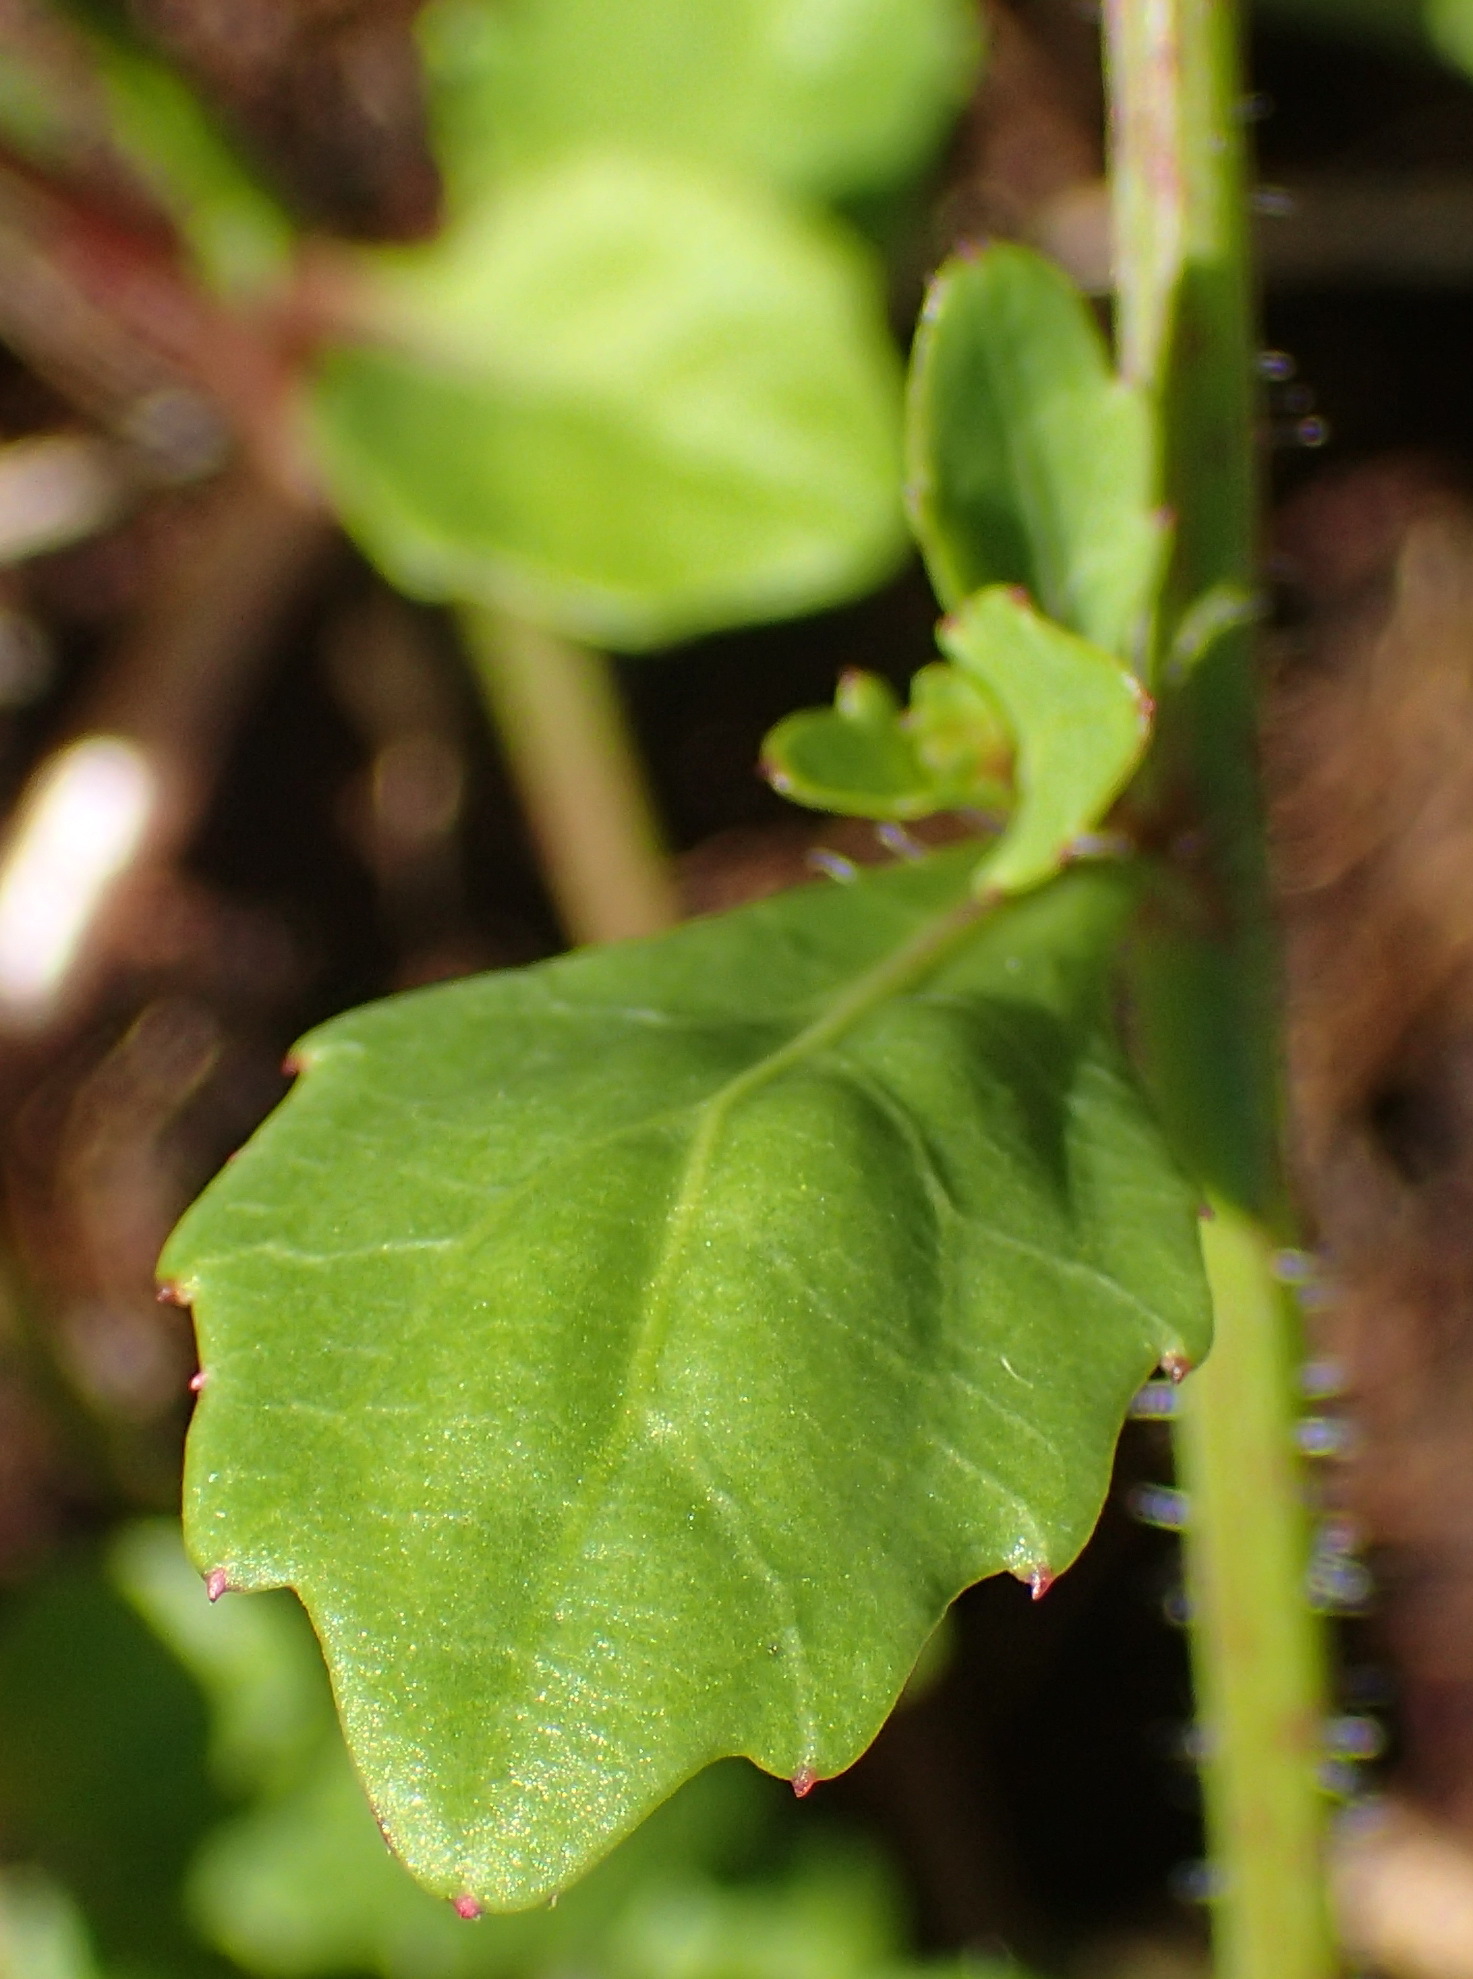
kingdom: Plantae
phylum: Tracheophyta
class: Magnoliopsida
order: Asterales
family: Campanulaceae
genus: Lobelia
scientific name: Lobelia cuneifolia
